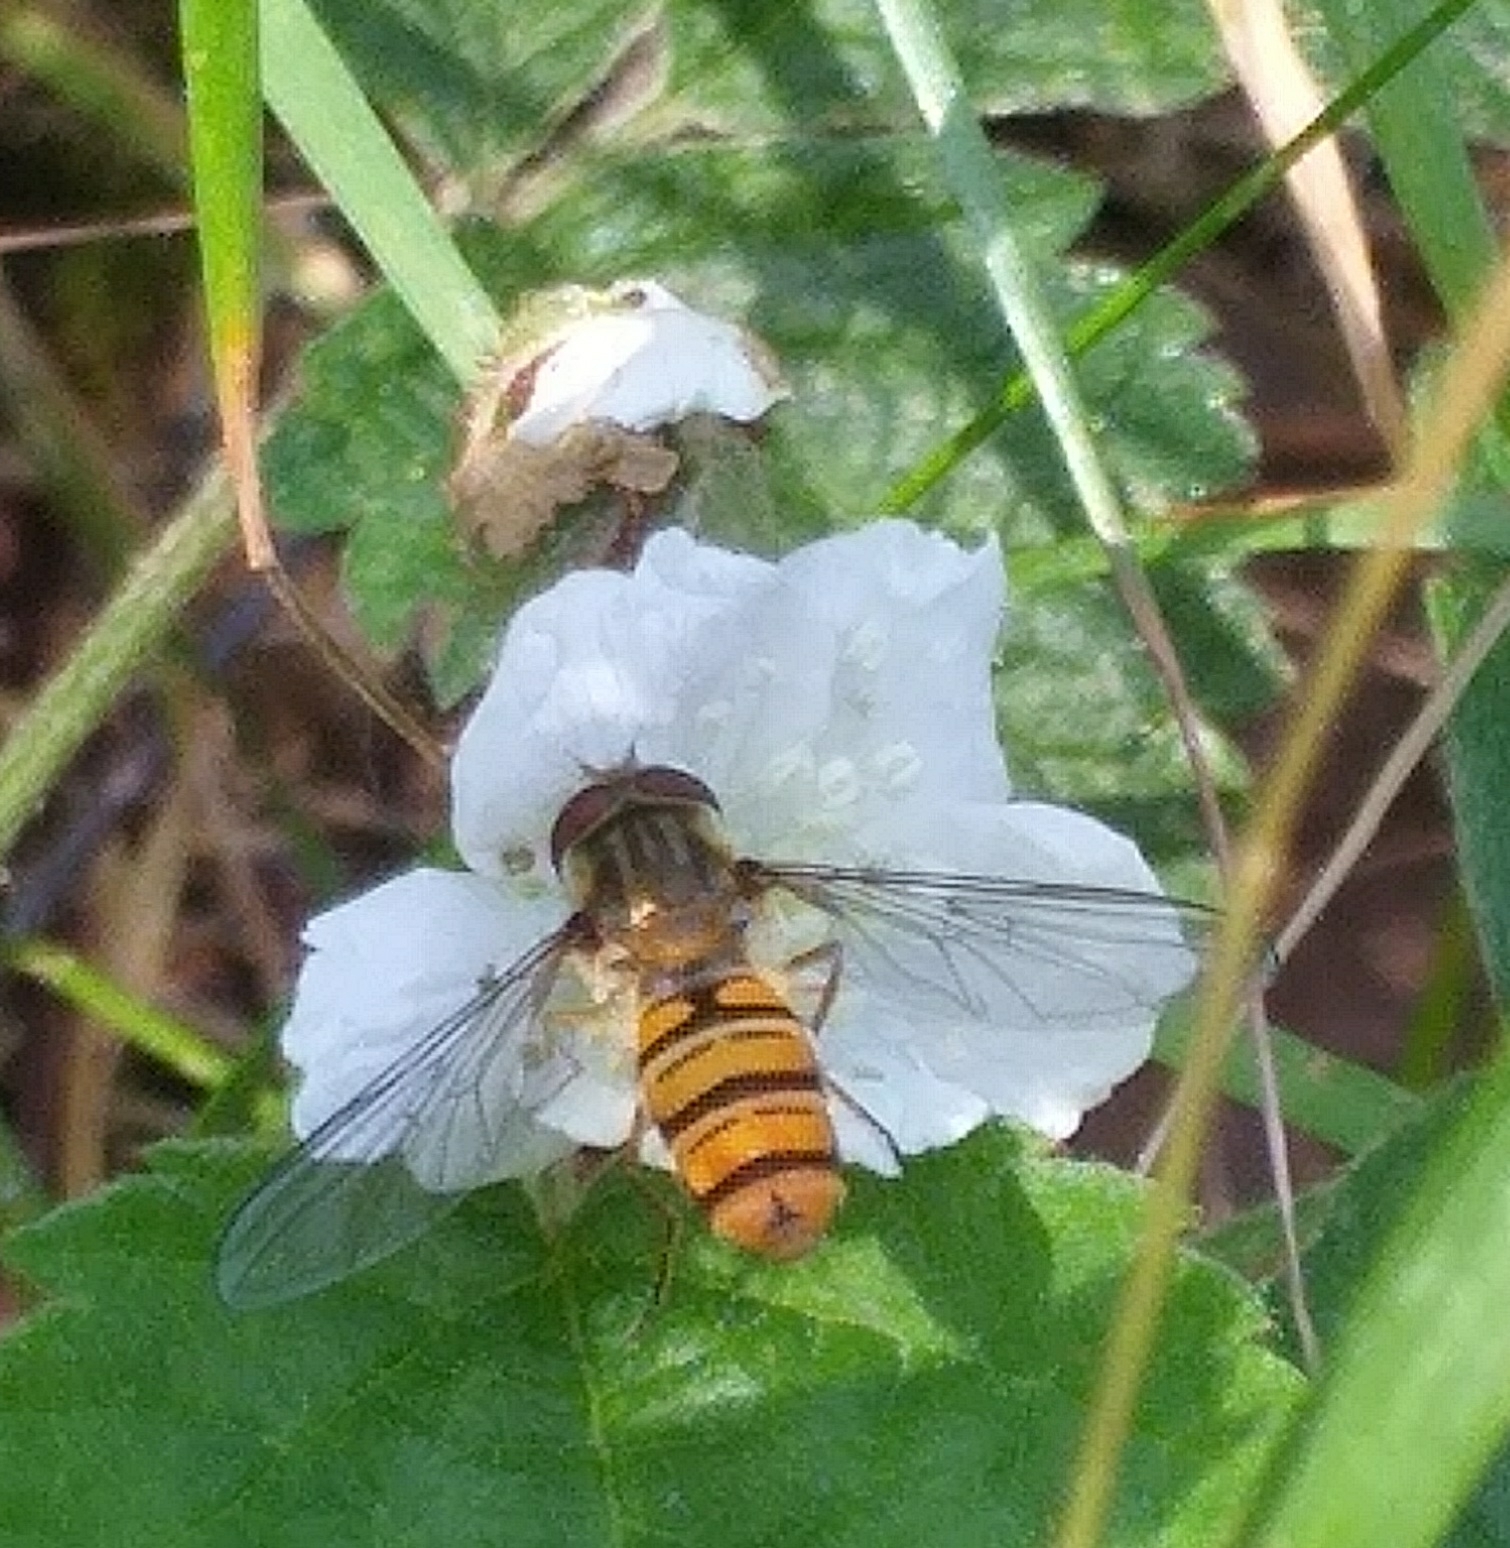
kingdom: Animalia
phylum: Arthropoda
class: Insecta
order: Diptera
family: Syrphidae
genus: Episyrphus
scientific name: Episyrphus balteatus
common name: Marmalade hoverfly
